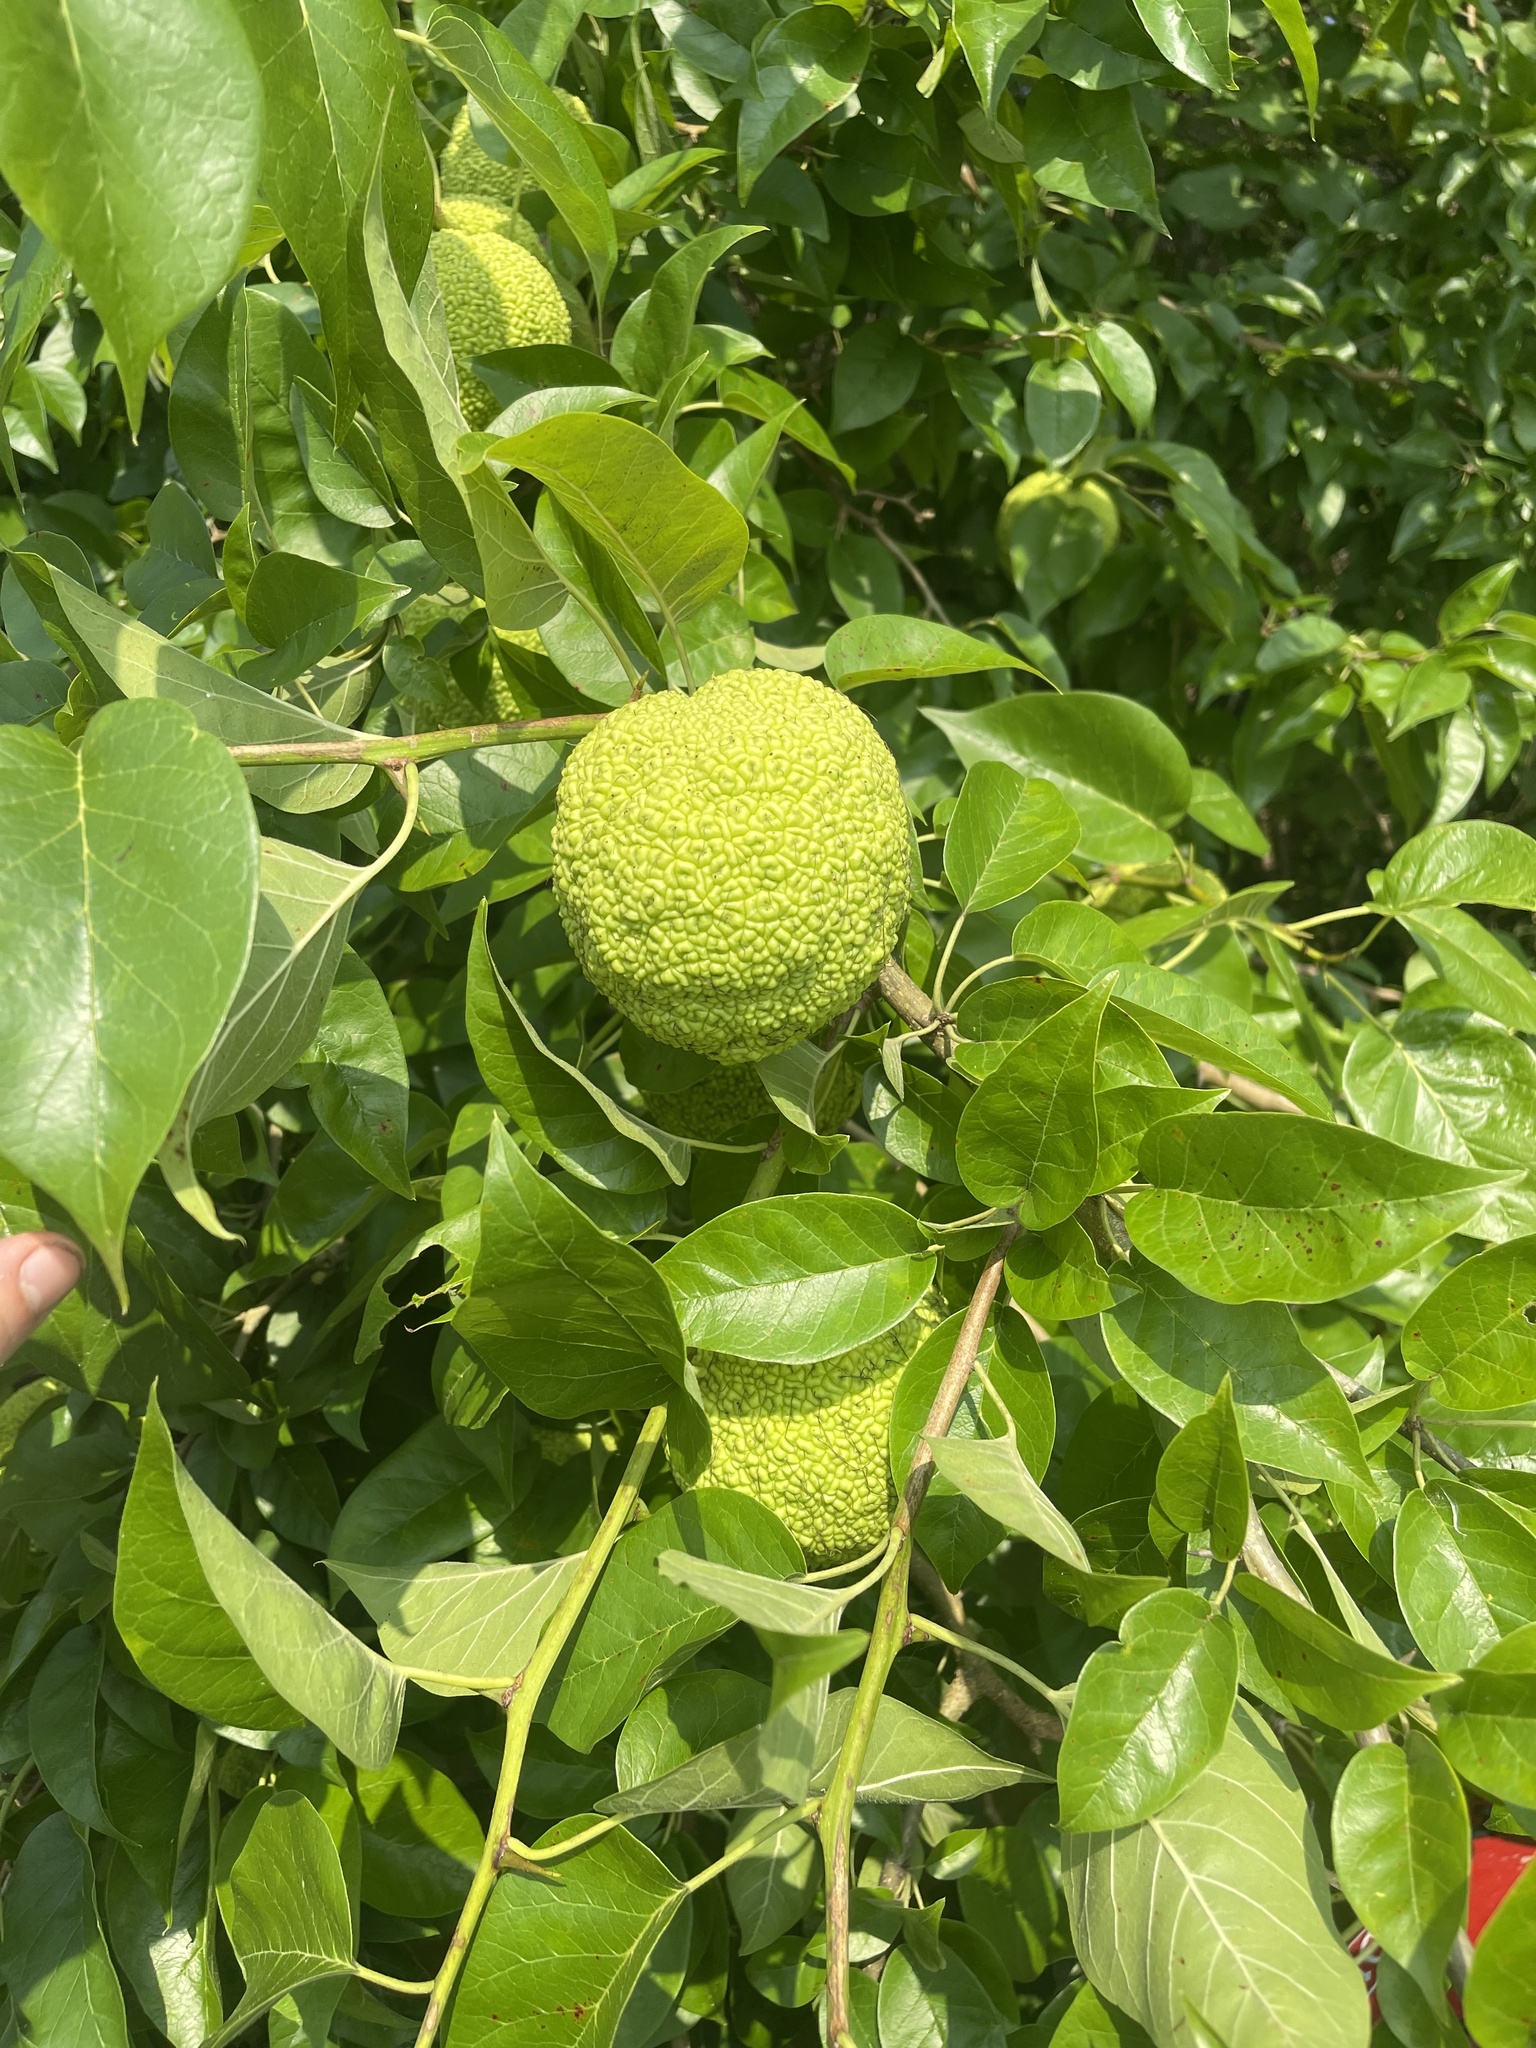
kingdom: Plantae
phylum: Tracheophyta
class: Magnoliopsida
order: Rosales
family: Moraceae
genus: Maclura
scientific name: Maclura pomifera
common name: Osage-orange
